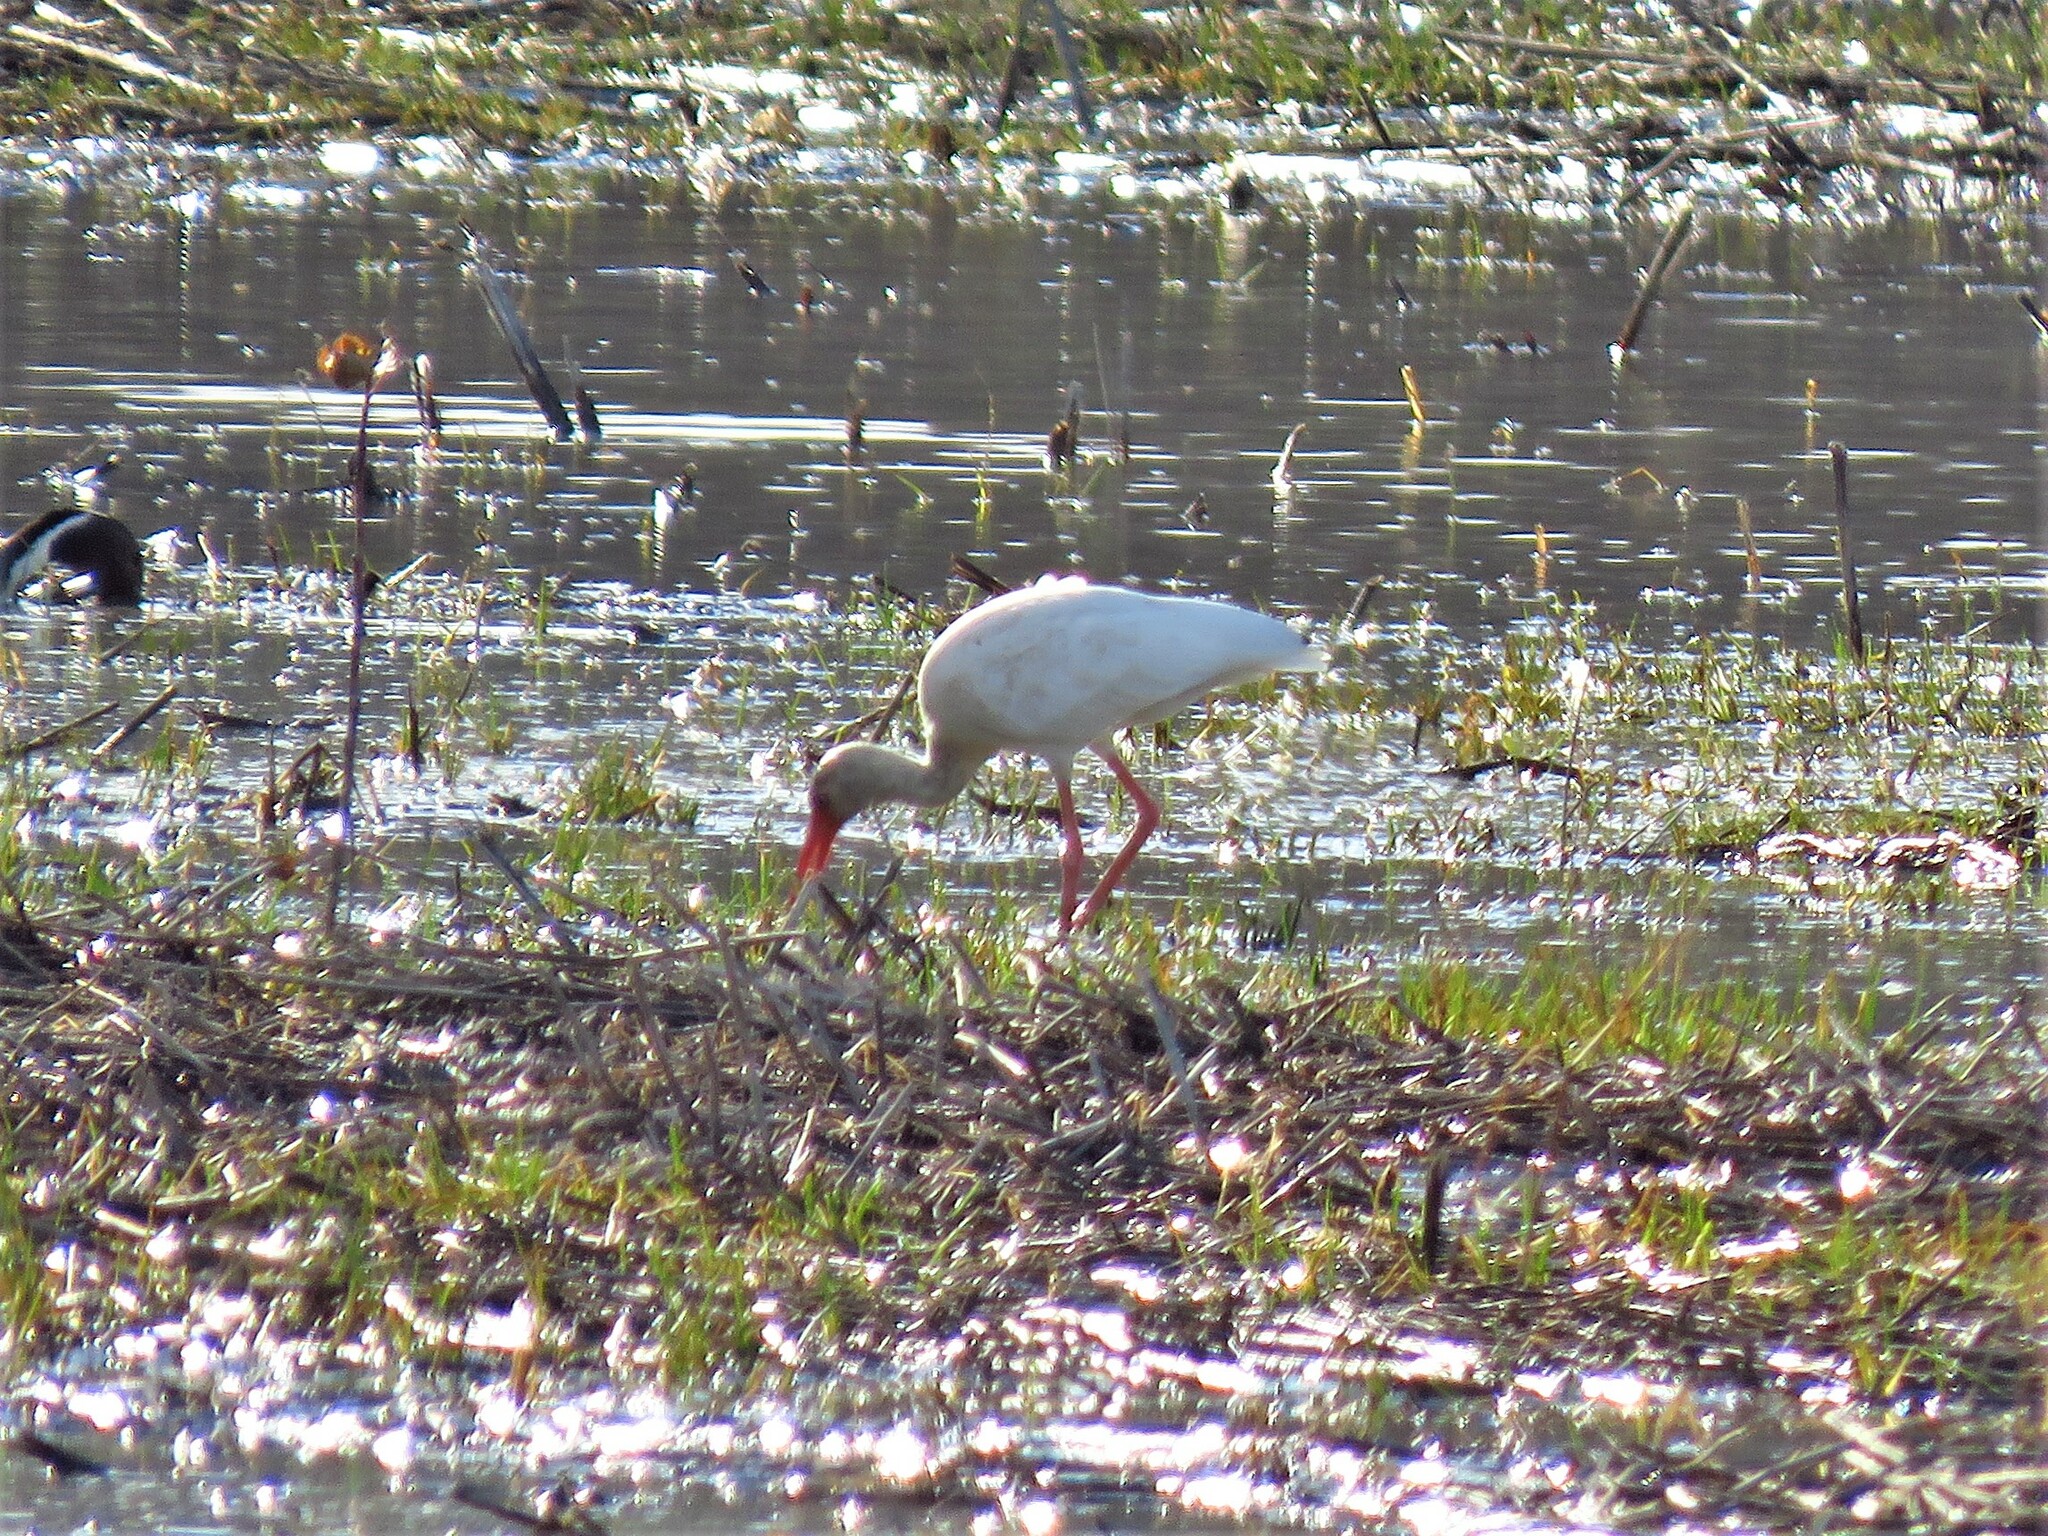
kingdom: Animalia
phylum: Chordata
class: Aves
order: Pelecaniformes
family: Threskiornithidae
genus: Eudocimus
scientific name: Eudocimus albus
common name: White ibis
